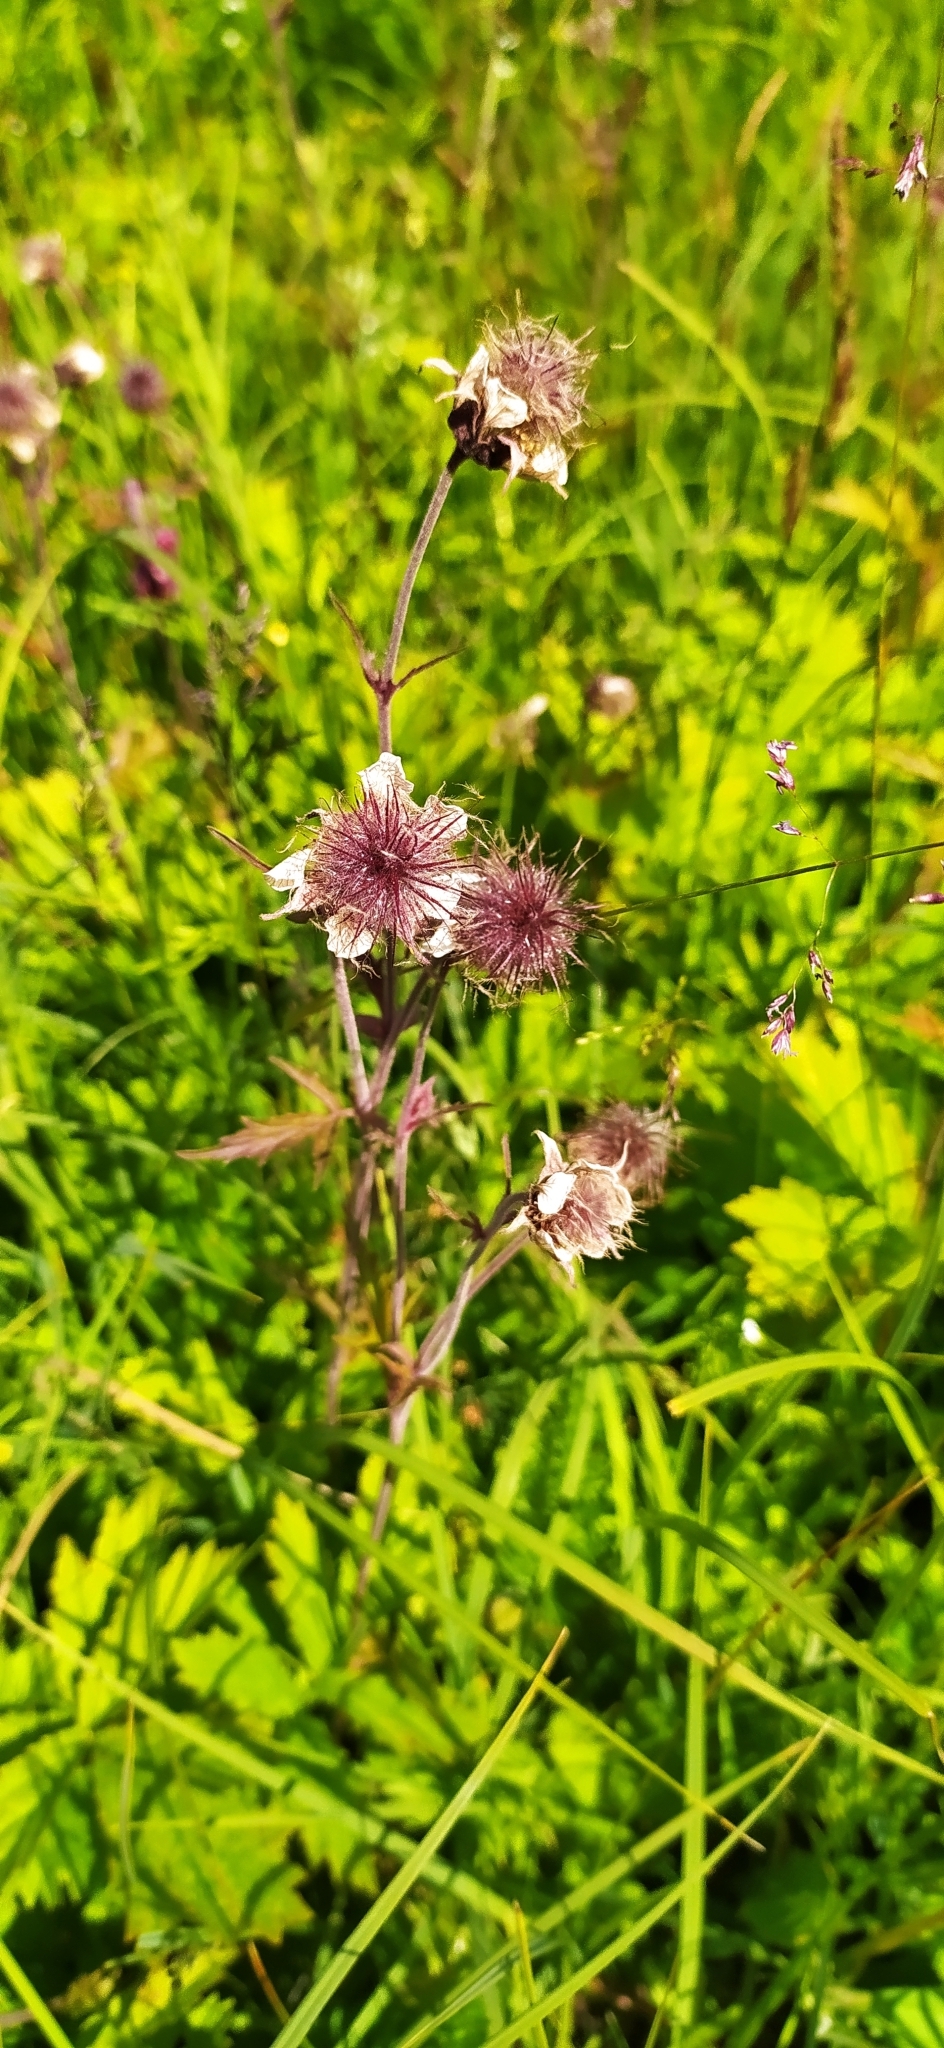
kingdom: Plantae
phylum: Tracheophyta
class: Magnoliopsida
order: Rosales
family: Rosaceae
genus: Geum
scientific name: Geum rivale
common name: Water avens
